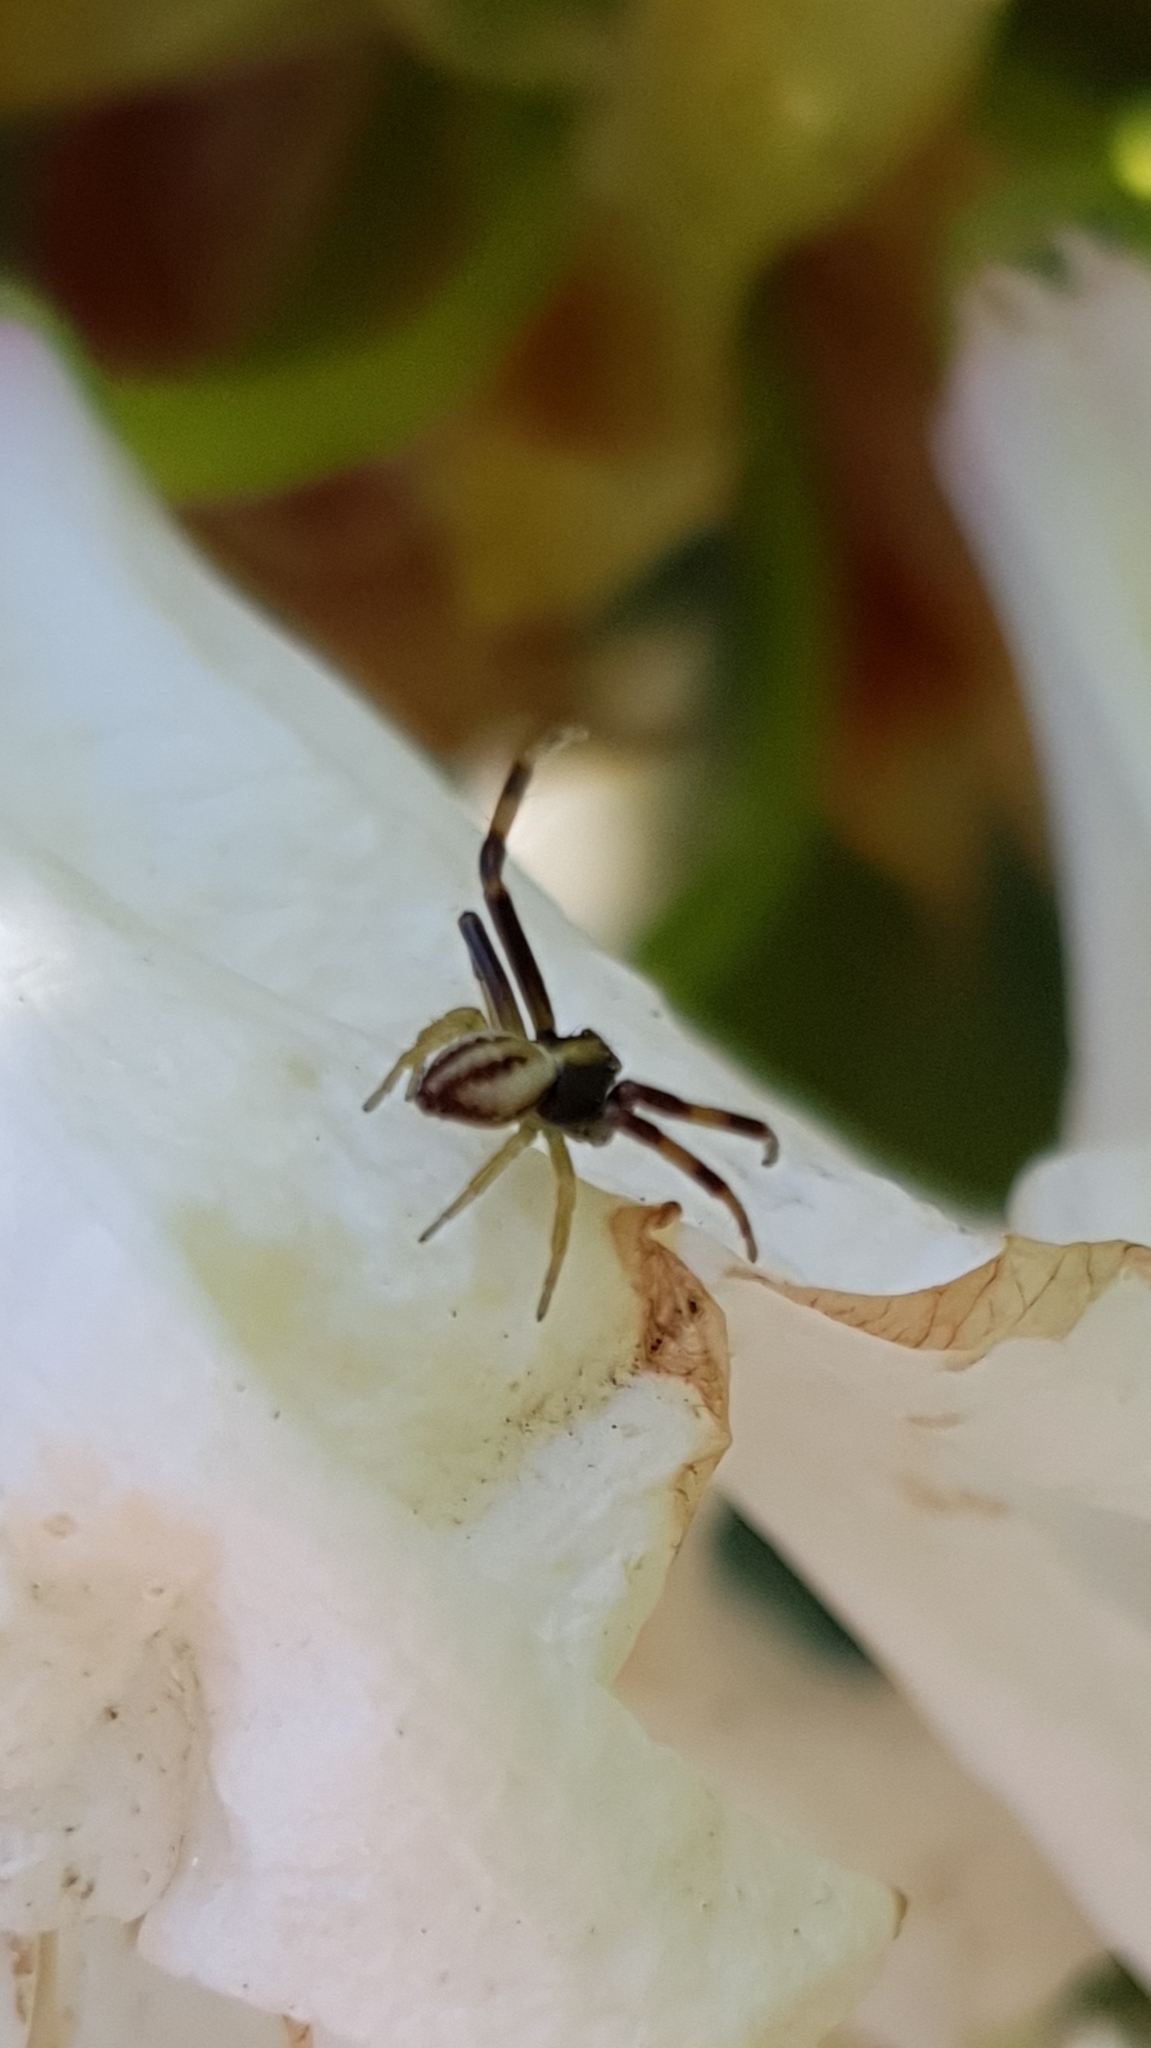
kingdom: Animalia
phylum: Arthropoda
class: Arachnida
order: Araneae
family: Thomisidae
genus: Misumena
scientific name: Misumena vatia
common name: Goldenrod crab spider
